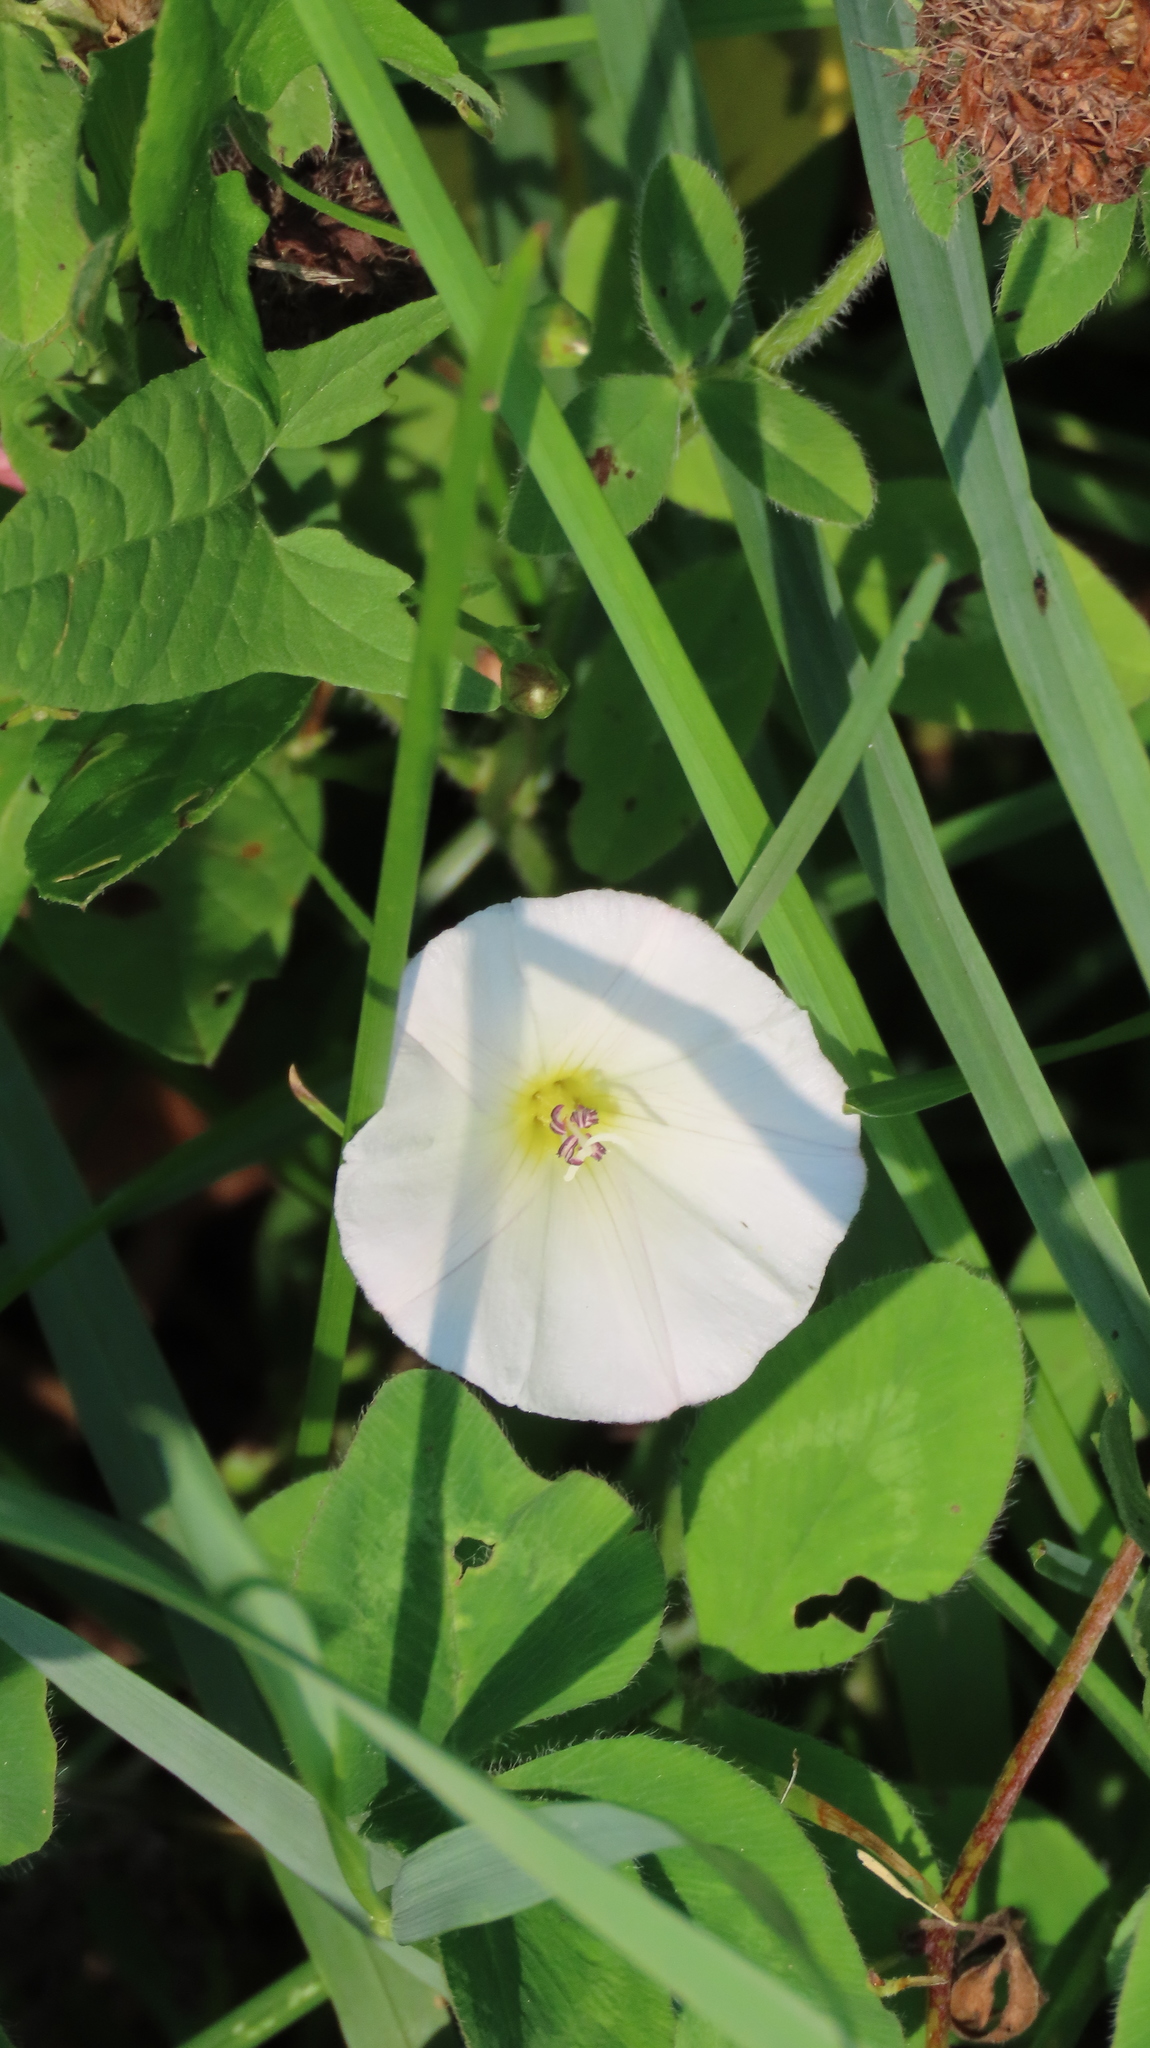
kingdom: Plantae
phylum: Tracheophyta
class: Magnoliopsida
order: Solanales
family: Convolvulaceae
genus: Convolvulus
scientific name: Convolvulus arvensis
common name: Field bindweed
